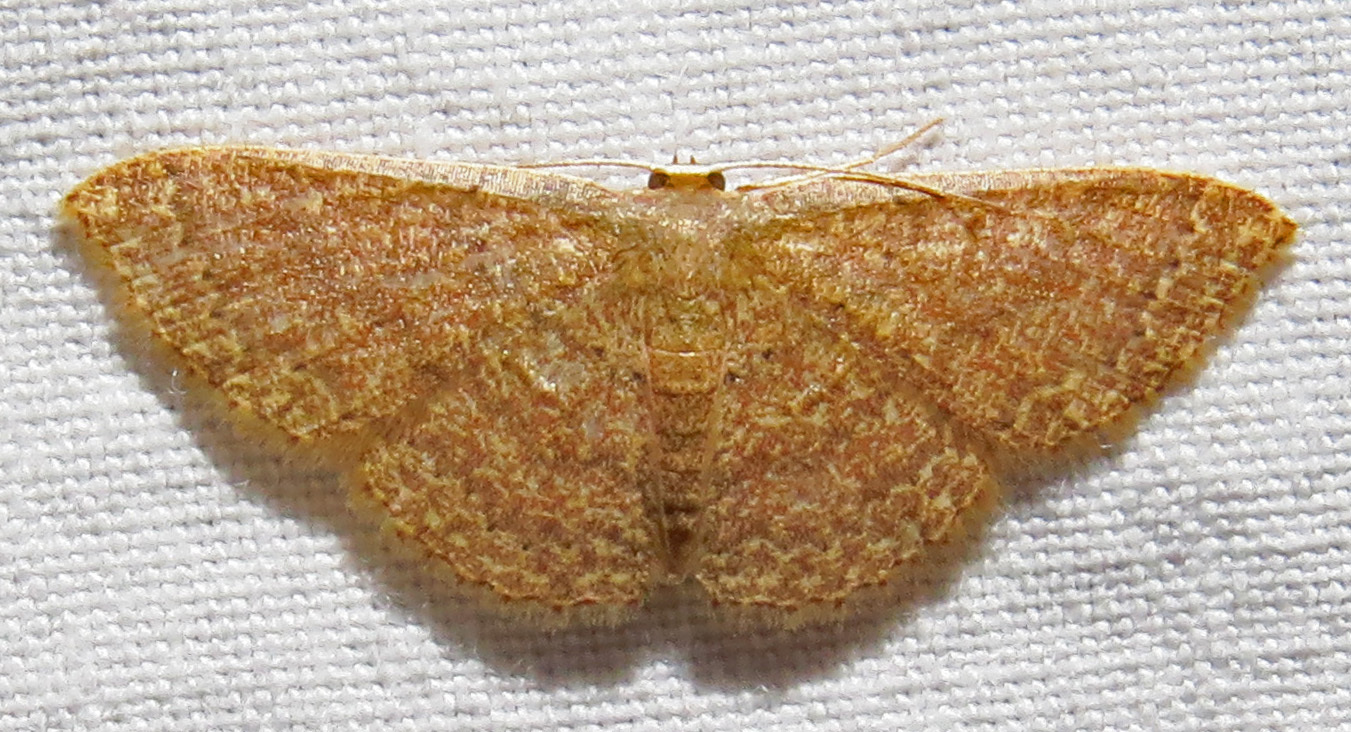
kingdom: Animalia
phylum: Arthropoda
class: Insecta
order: Lepidoptera
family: Geometridae
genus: Pleuroprucha
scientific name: Pleuroprucha insulsaria
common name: Common tan wave
